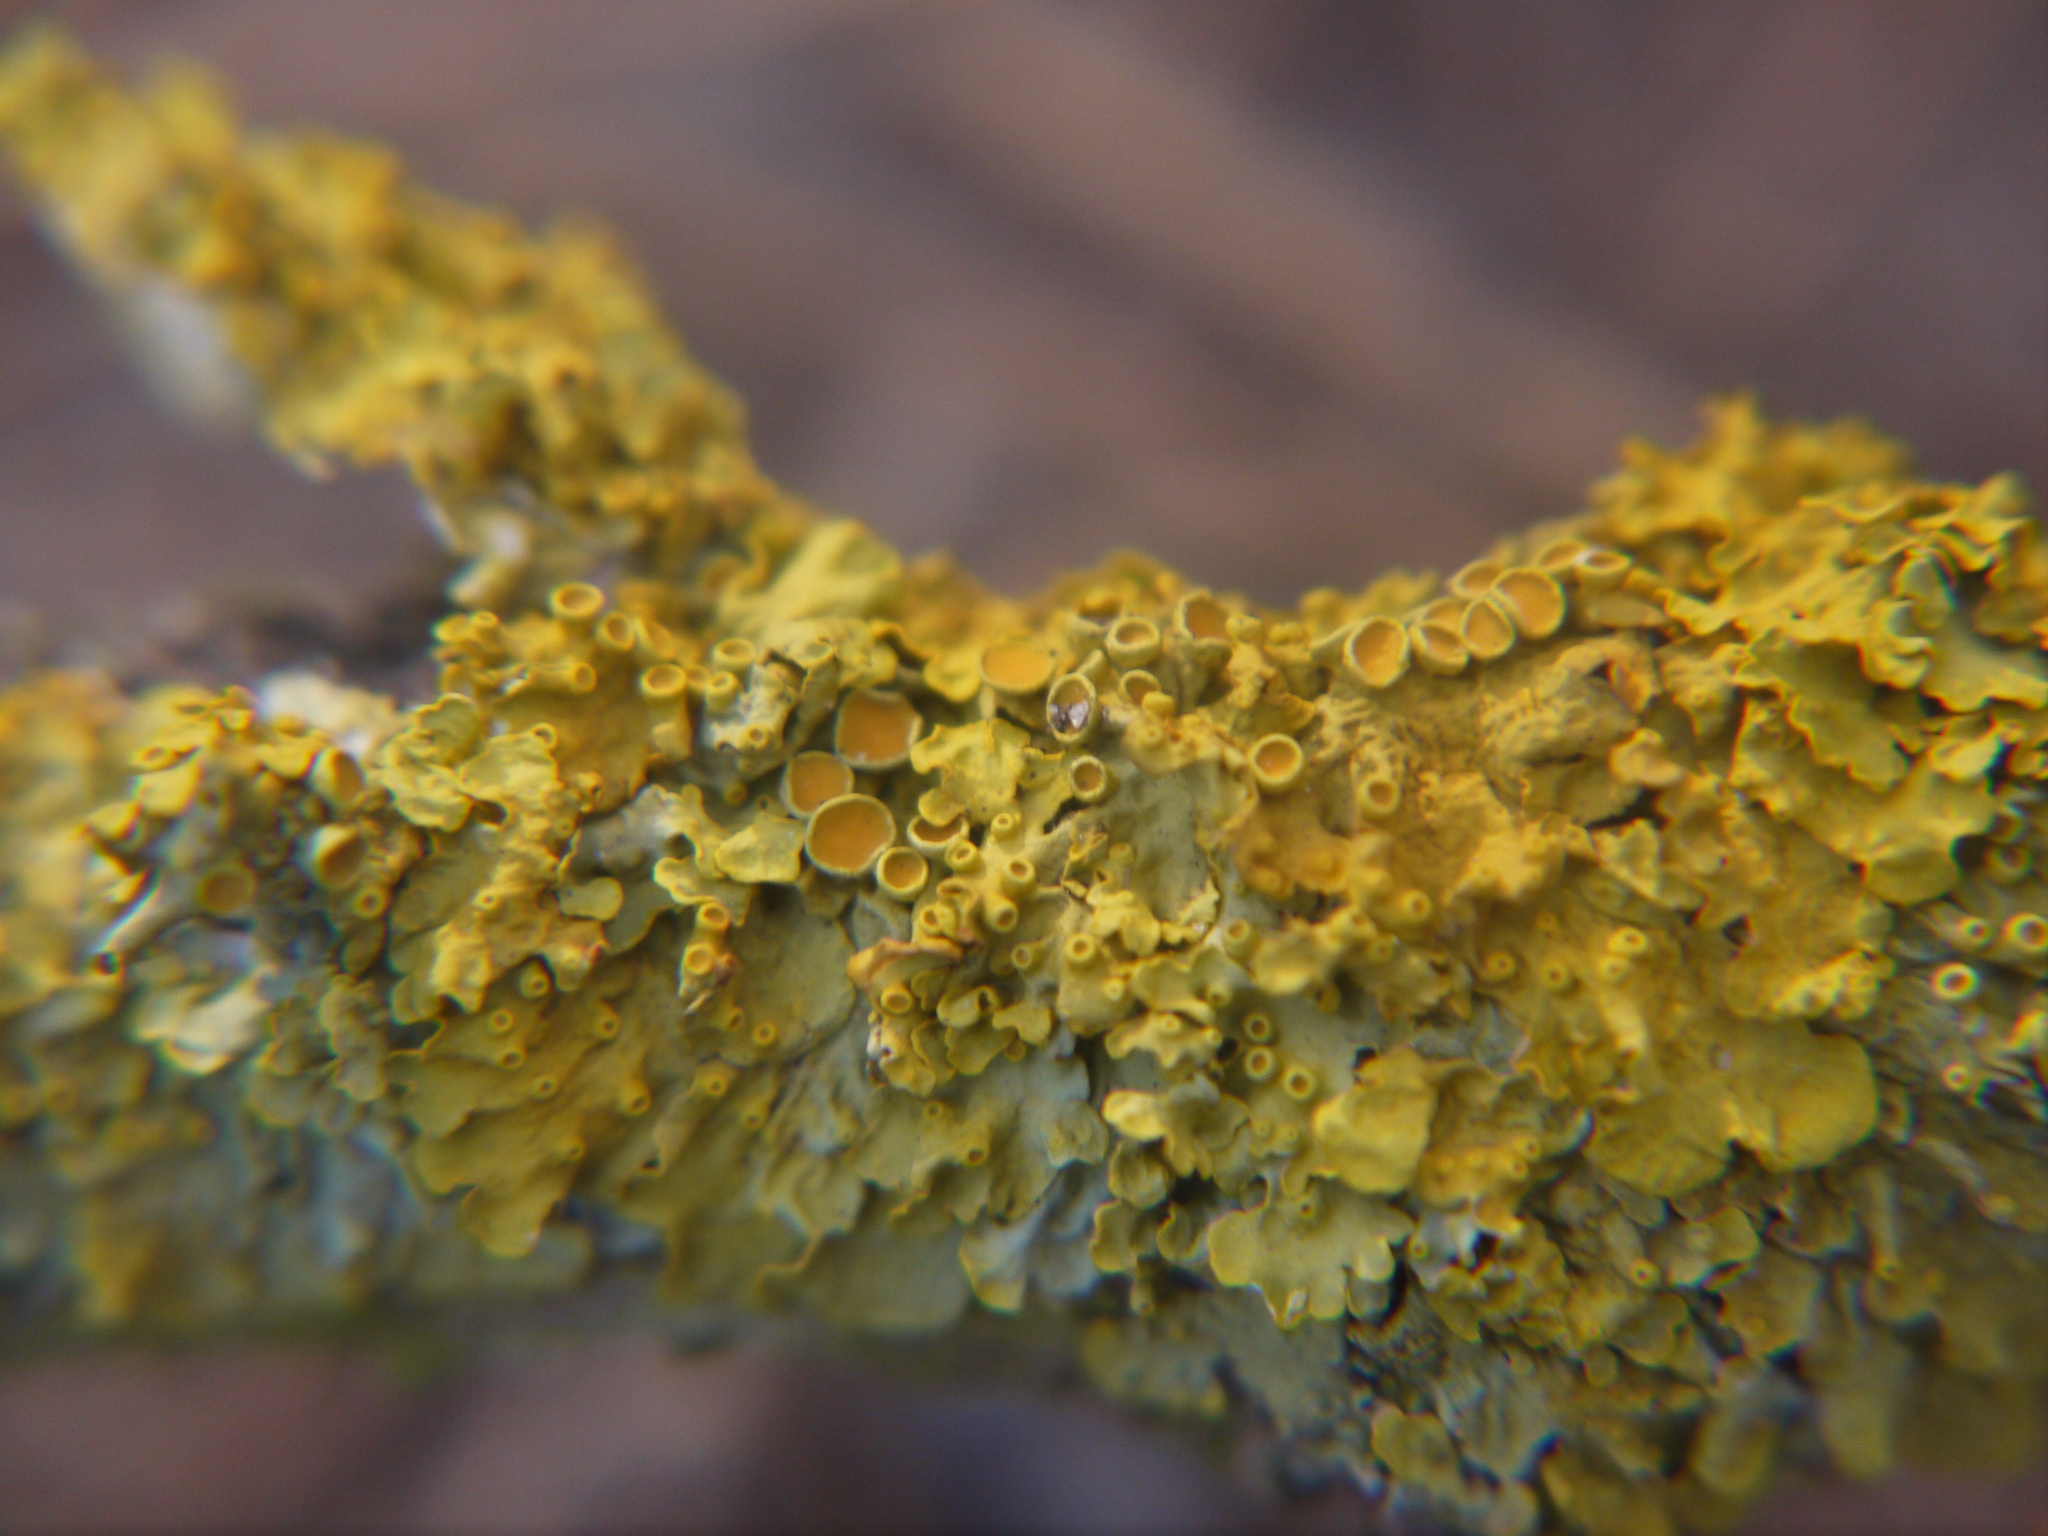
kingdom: Fungi
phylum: Ascomycota
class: Lecanoromycetes
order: Teloschistales
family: Teloschistaceae
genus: Xanthoria
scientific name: Xanthoria parietina
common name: Common orange lichen
